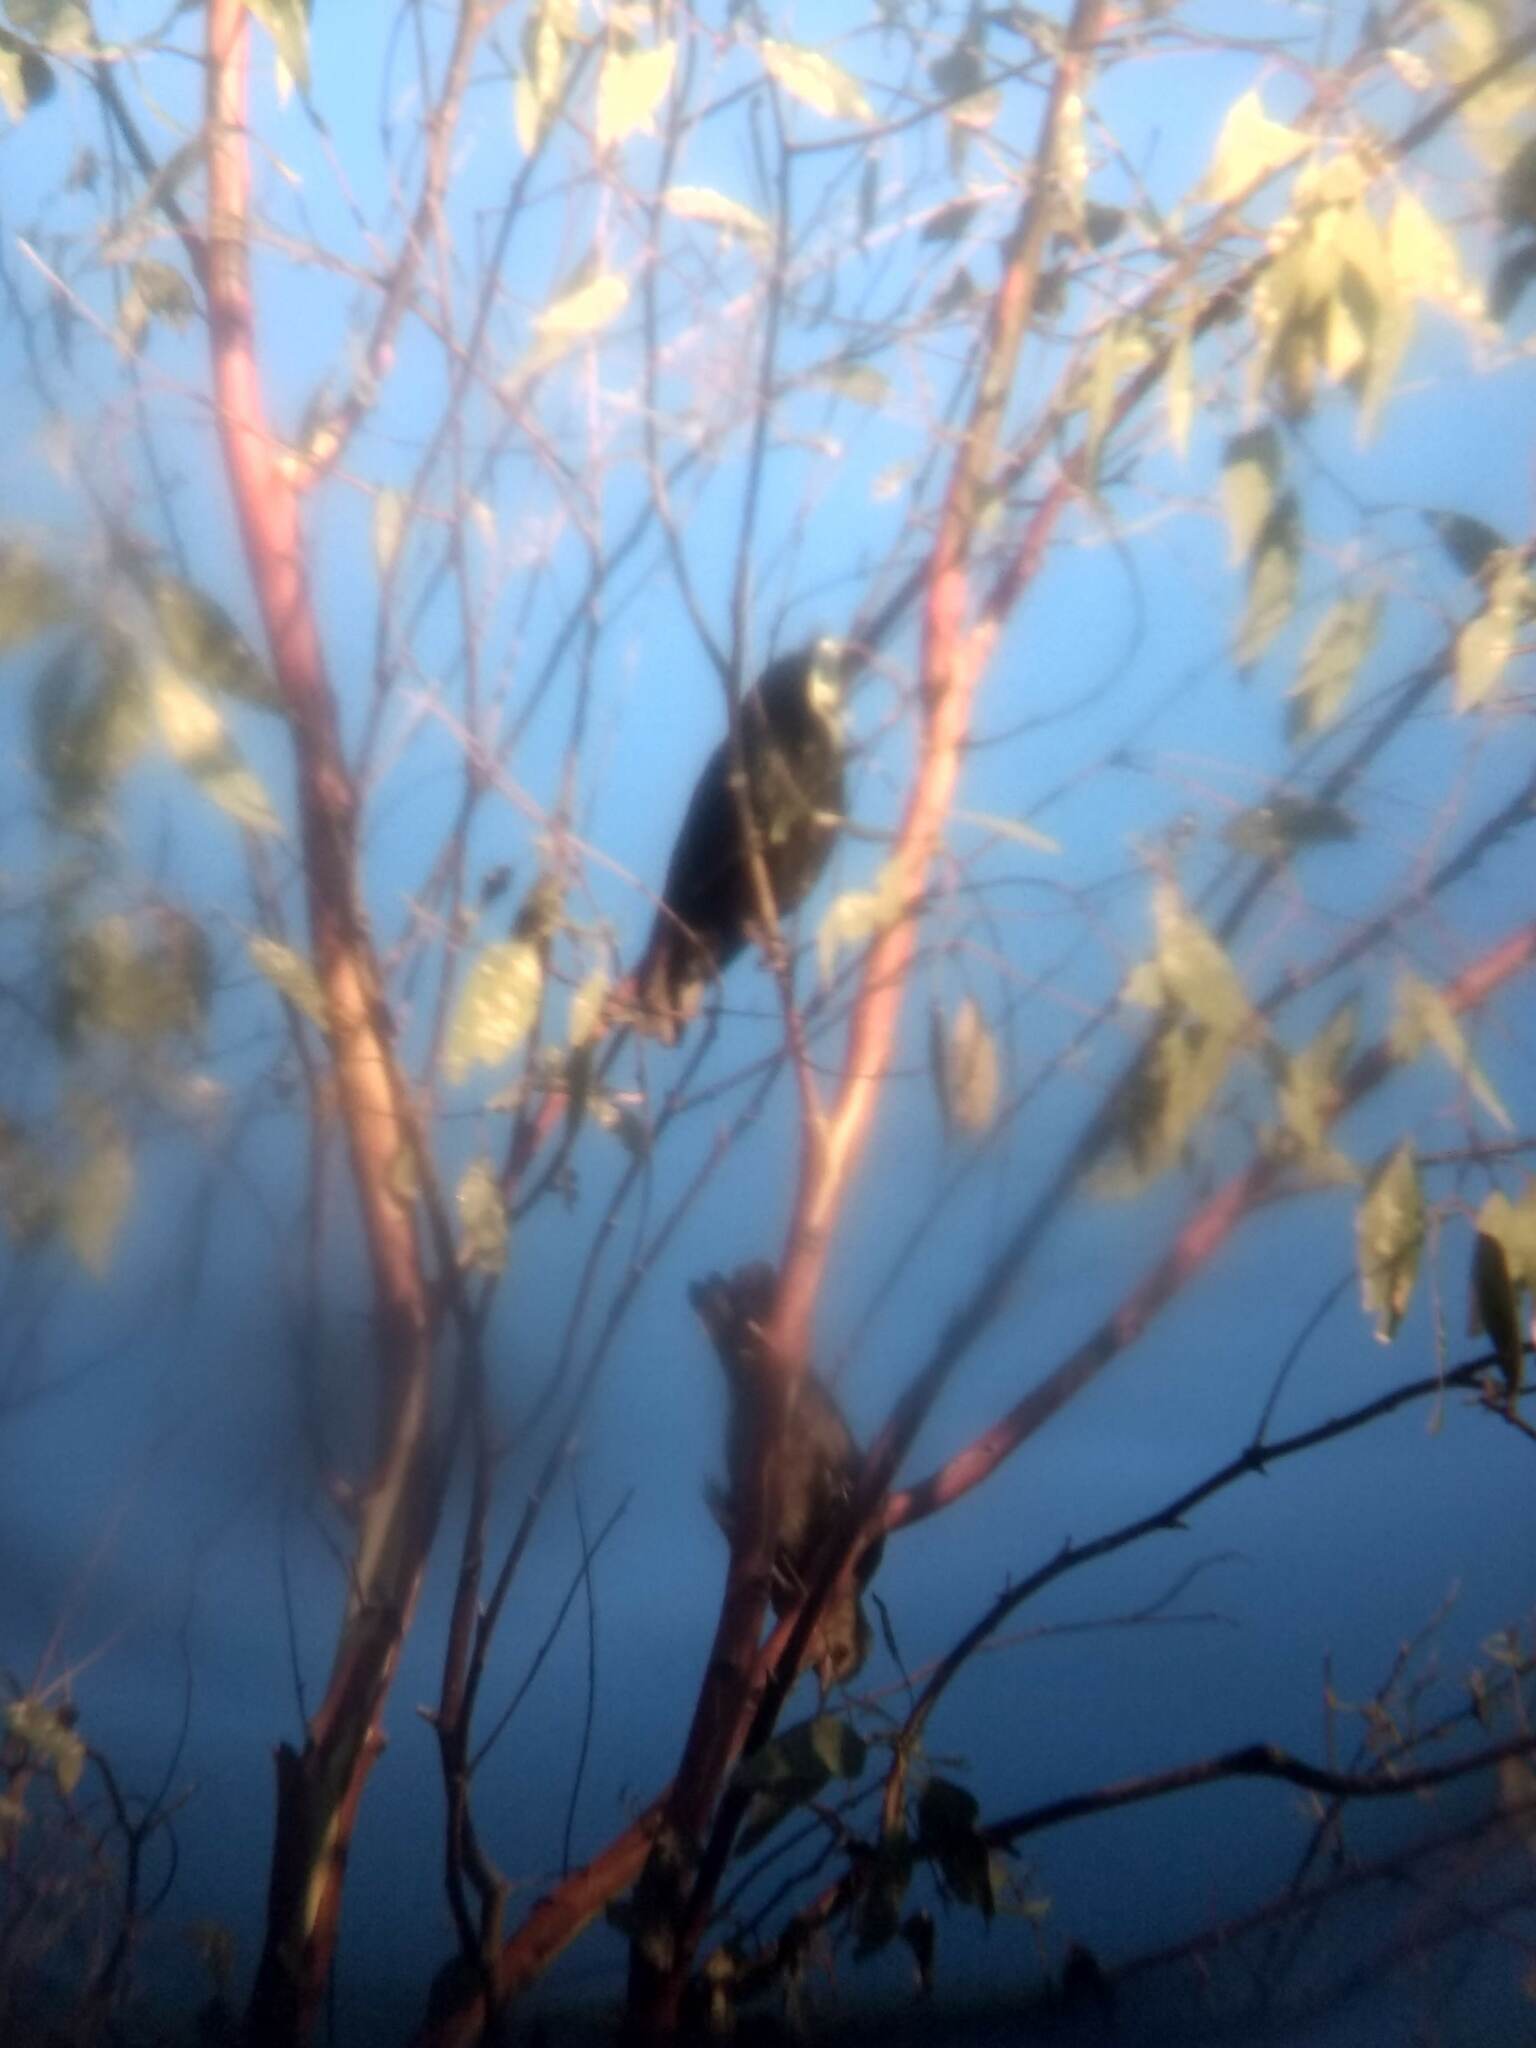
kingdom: Animalia
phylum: Chordata
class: Aves
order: Passeriformes
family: Sturnidae
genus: Sturnus
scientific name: Sturnus vulgaris
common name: Common starling
